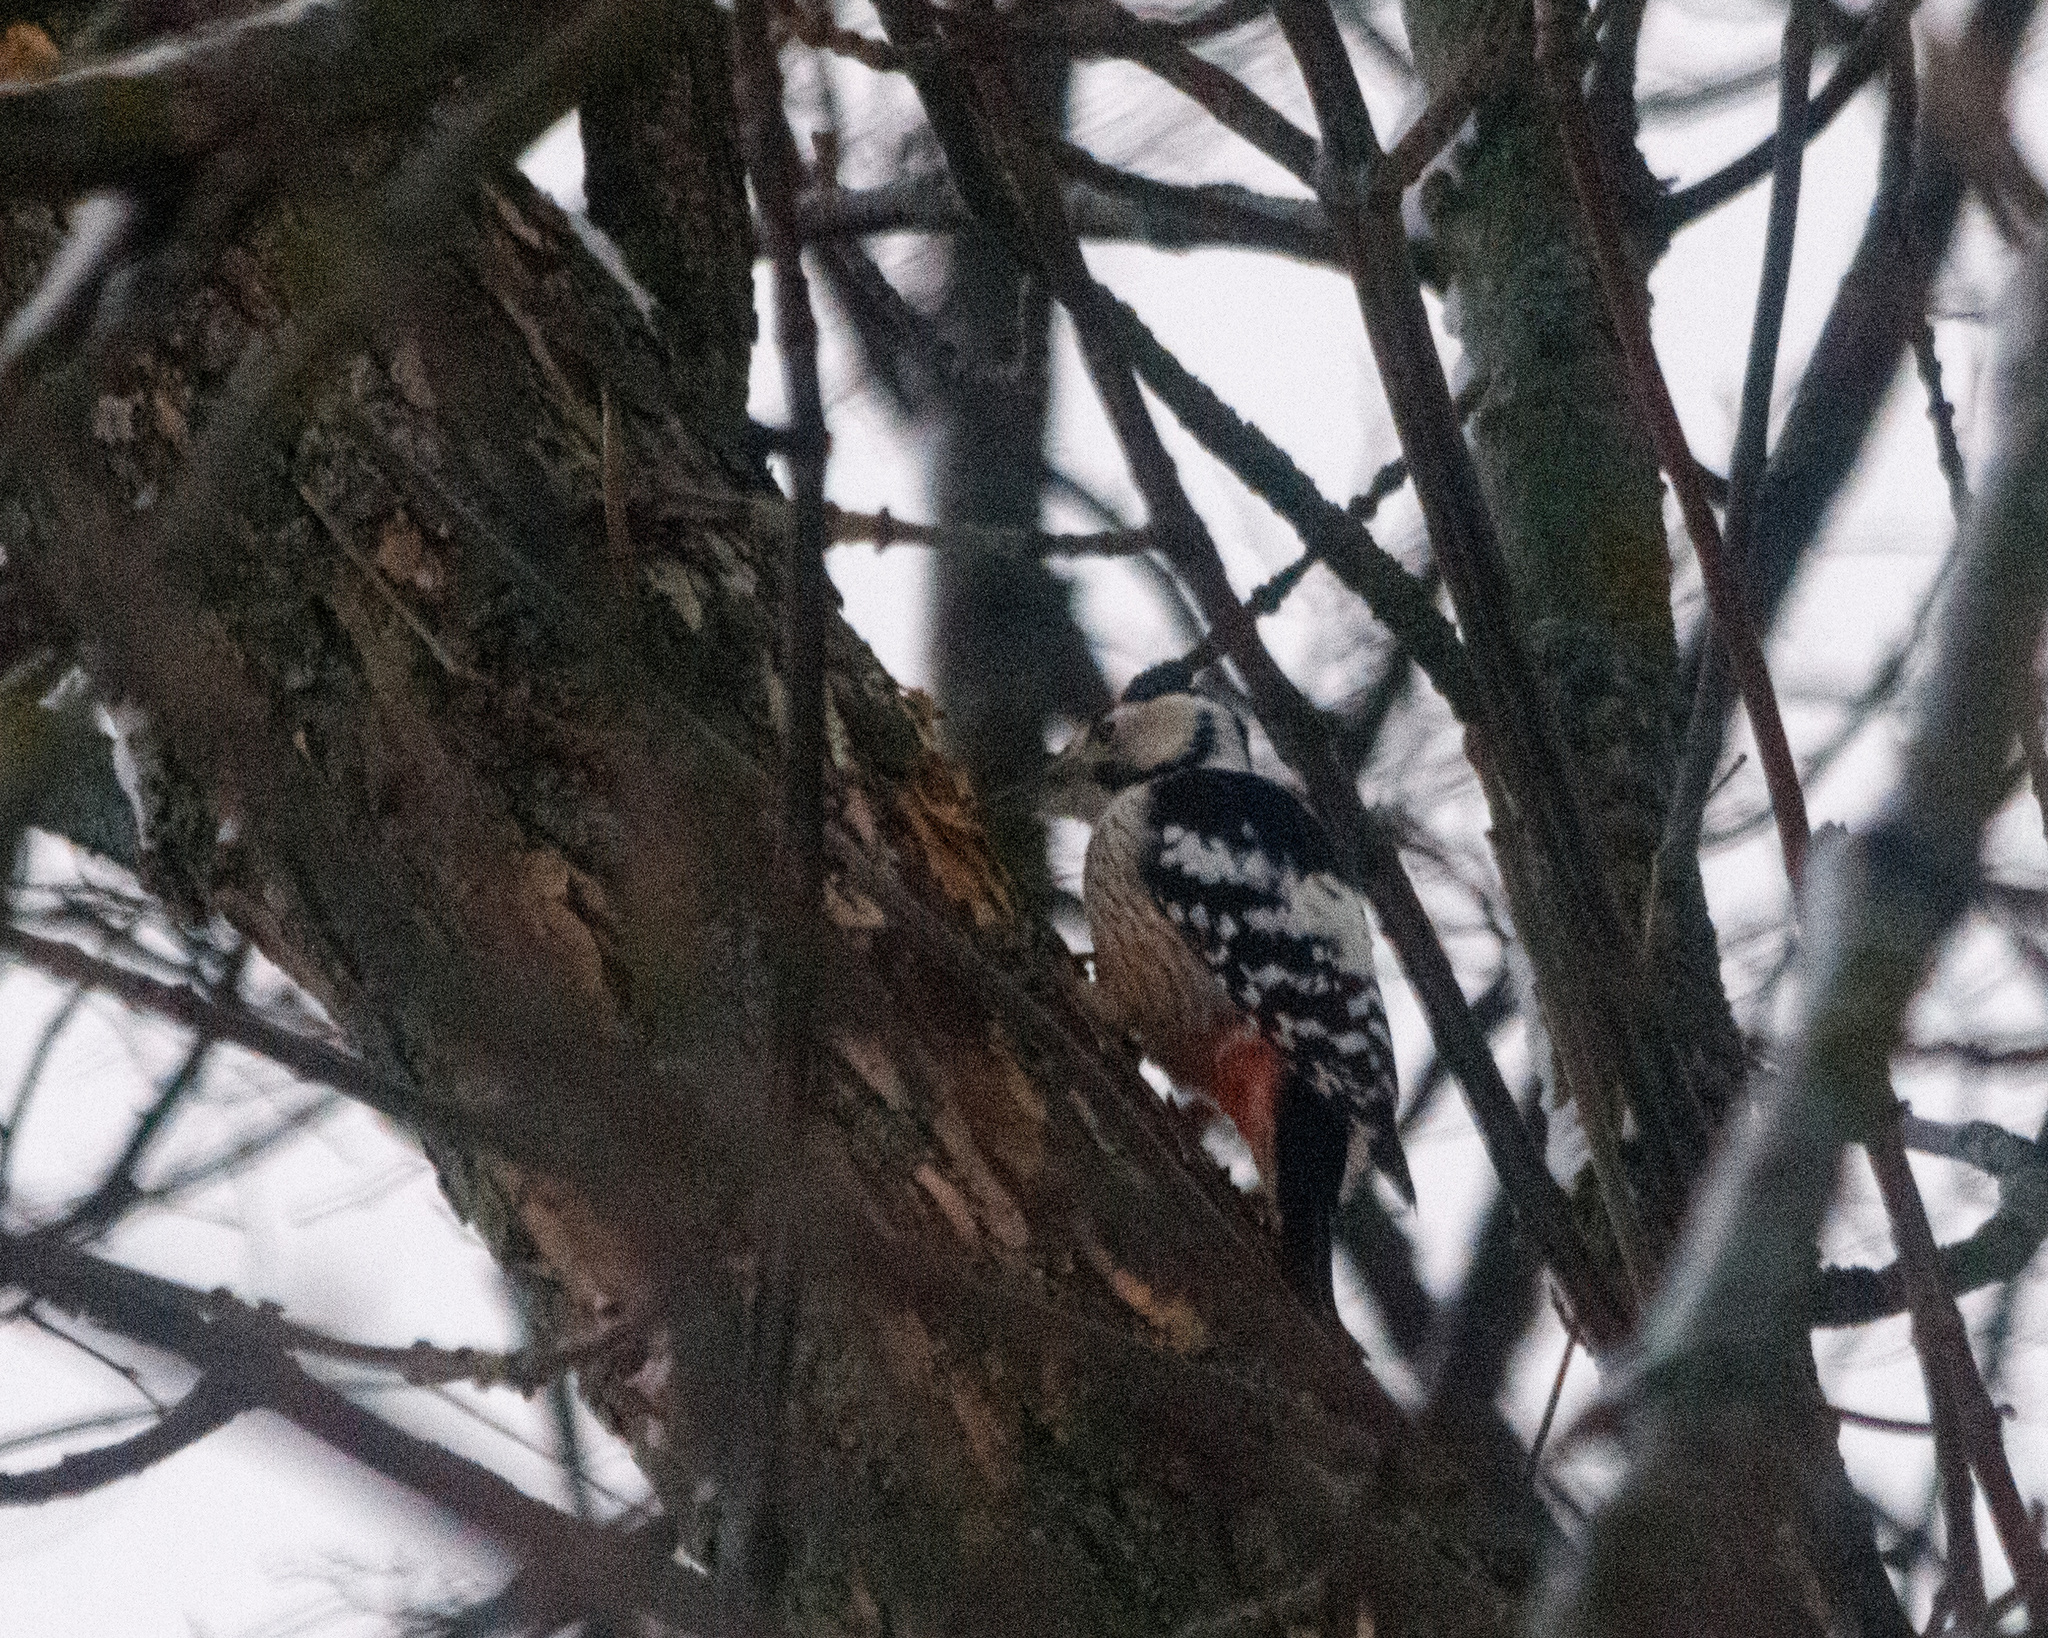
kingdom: Animalia
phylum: Chordata
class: Aves
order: Piciformes
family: Picidae
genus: Dendrocopos
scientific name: Dendrocopos leucotos
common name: White-backed woodpecker
